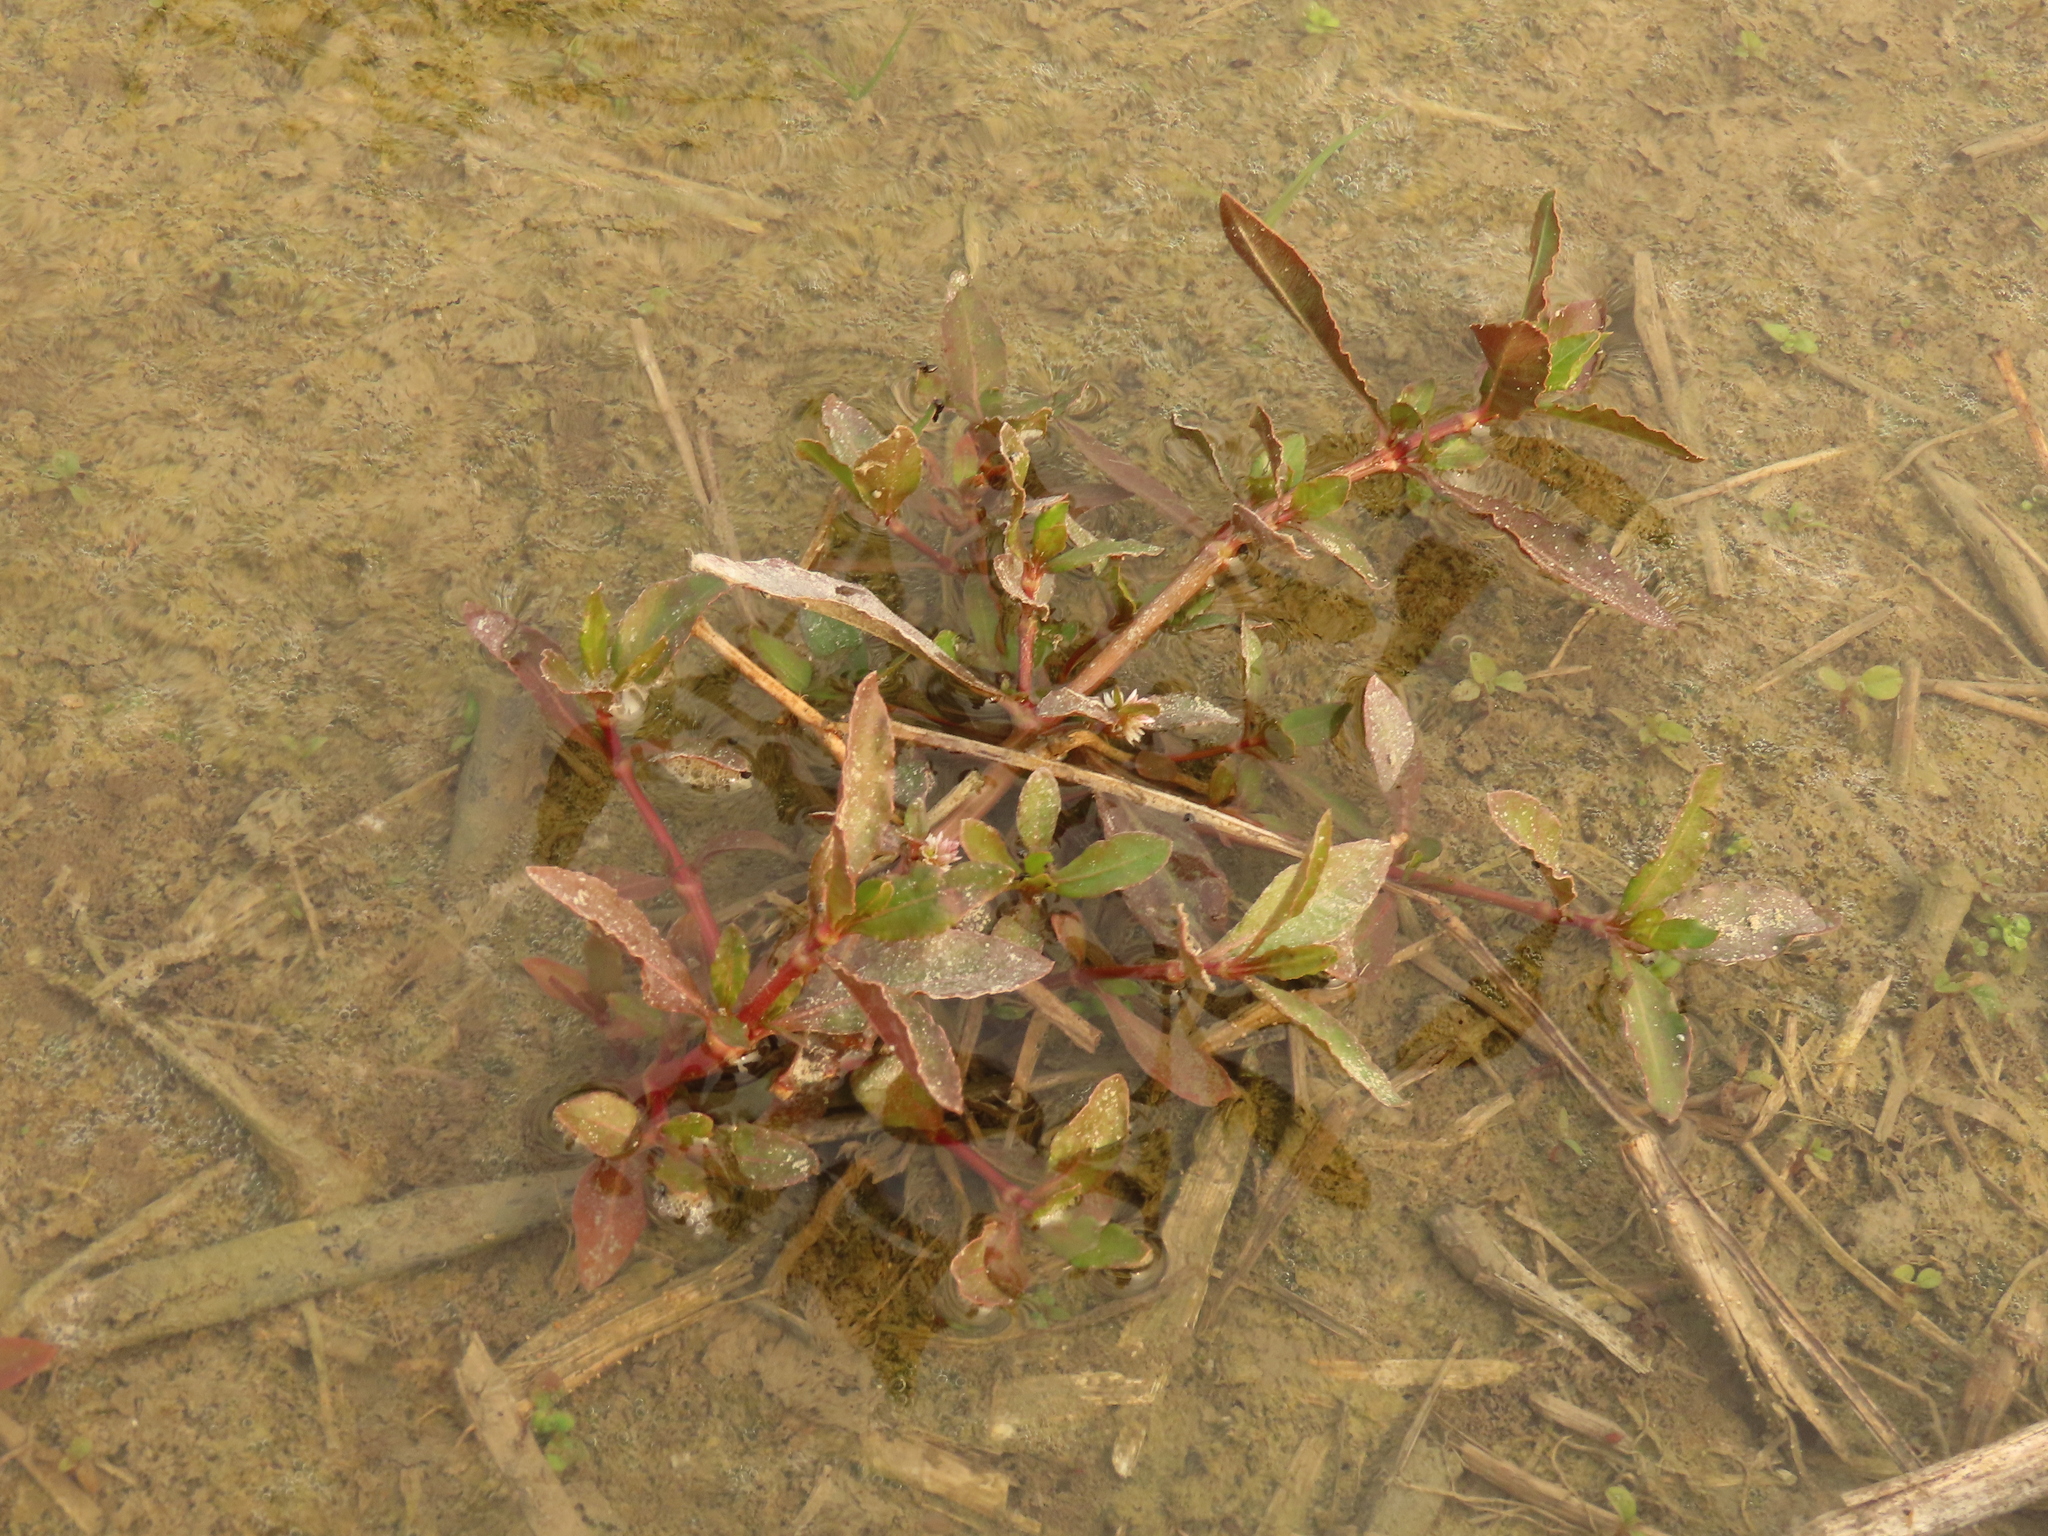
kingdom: Plantae
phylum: Tracheophyta
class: Magnoliopsida
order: Caryophyllales
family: Amaranthaceae
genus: Alternanthera
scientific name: Alternanthera sessilis
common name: Sessile joyweed
